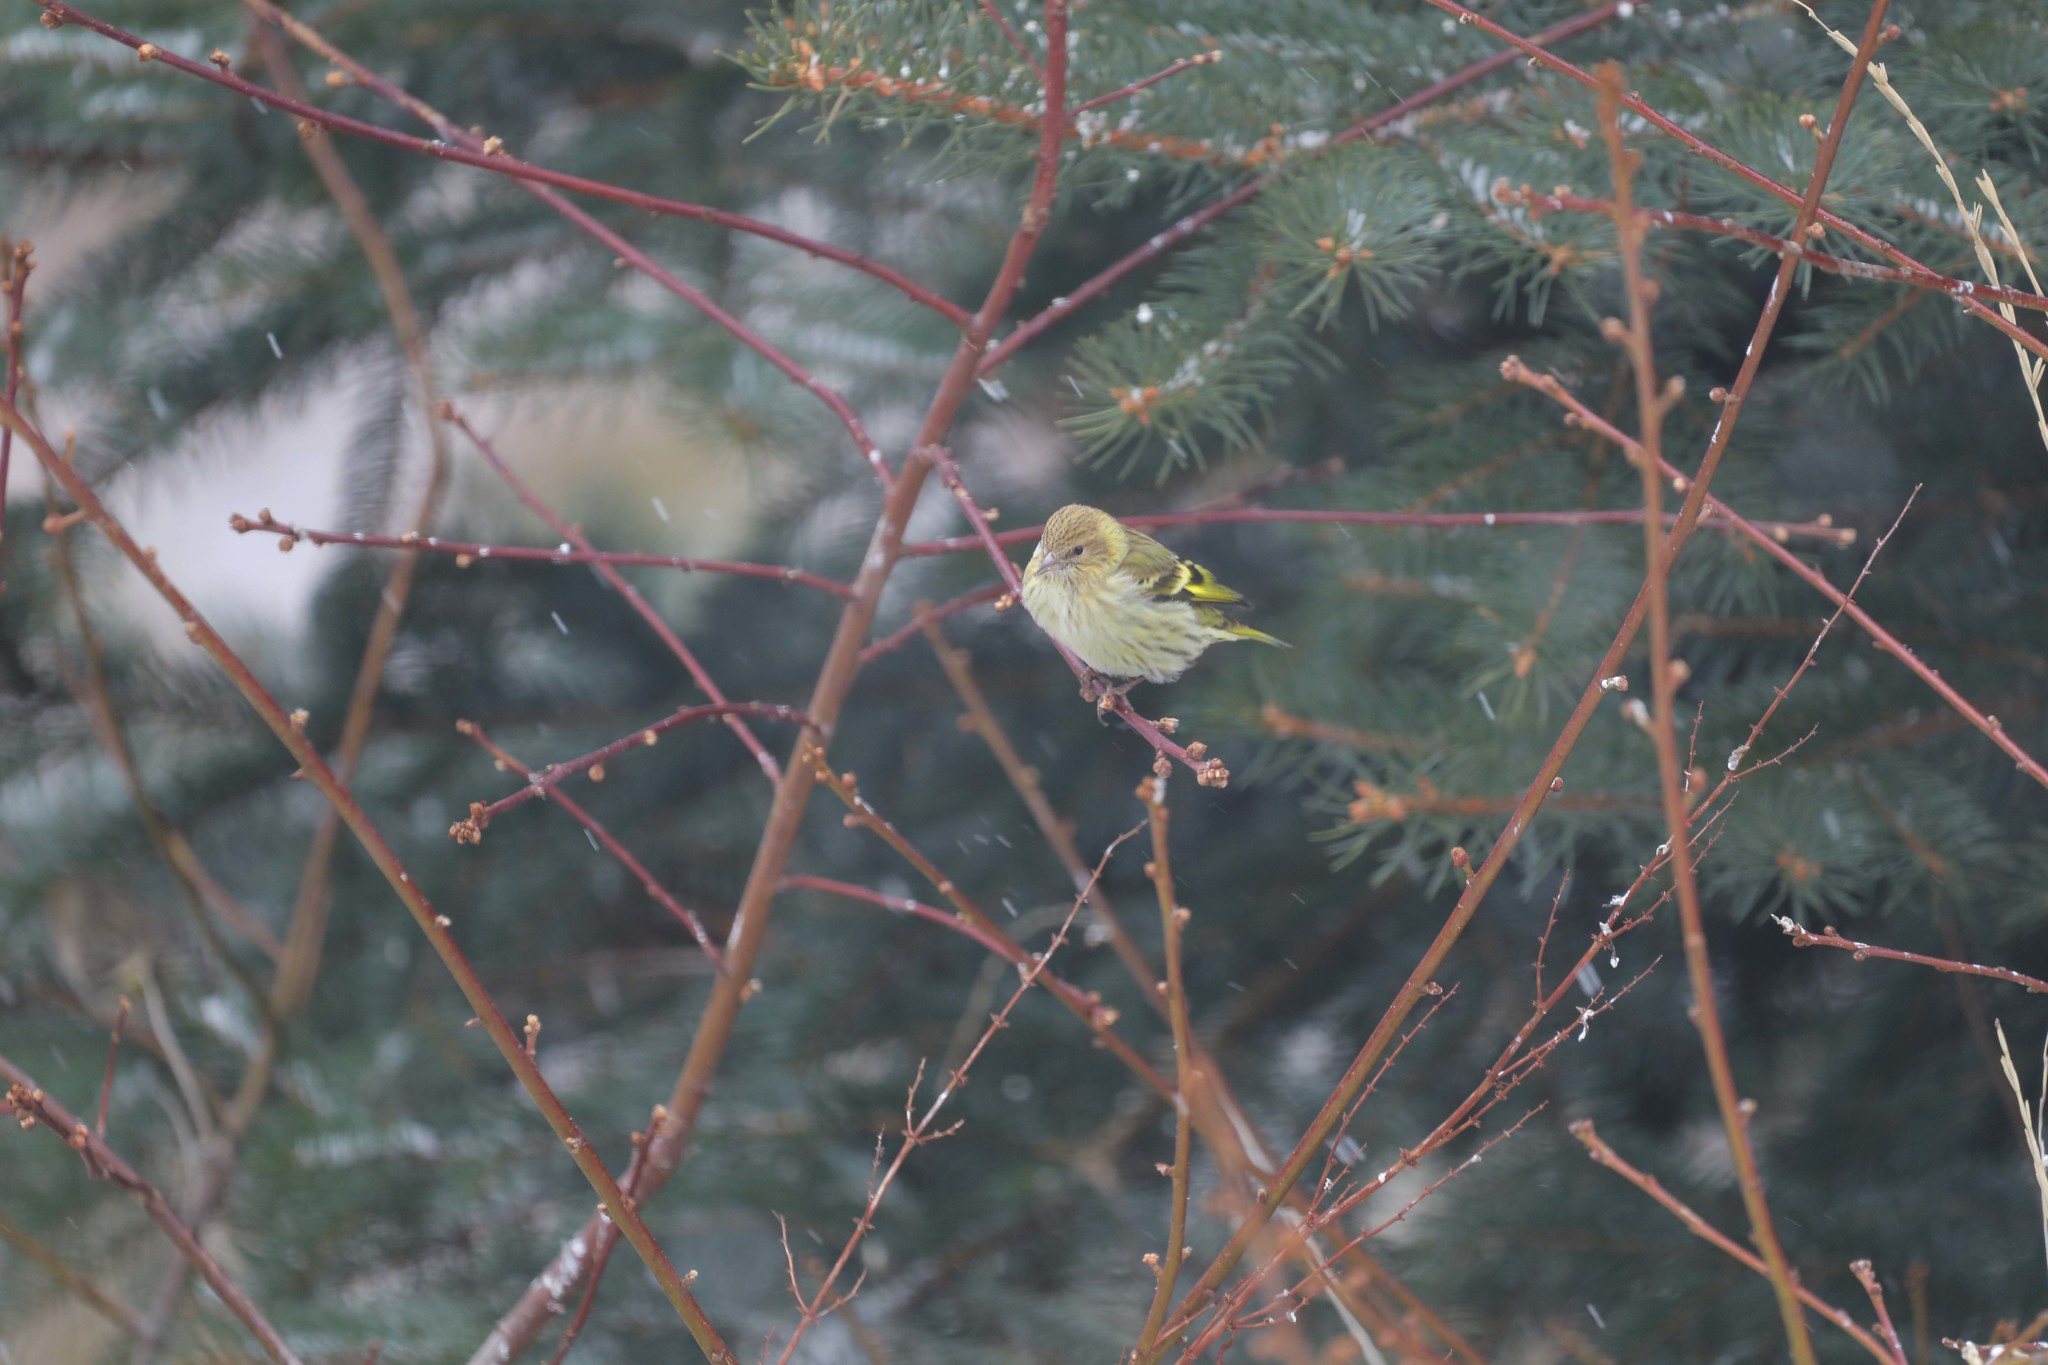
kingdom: Animalia
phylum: Chordata
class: Aves
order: Passeriformes
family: Fringillidae
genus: Spinus
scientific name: Spinus pinus
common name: Pine siskin
